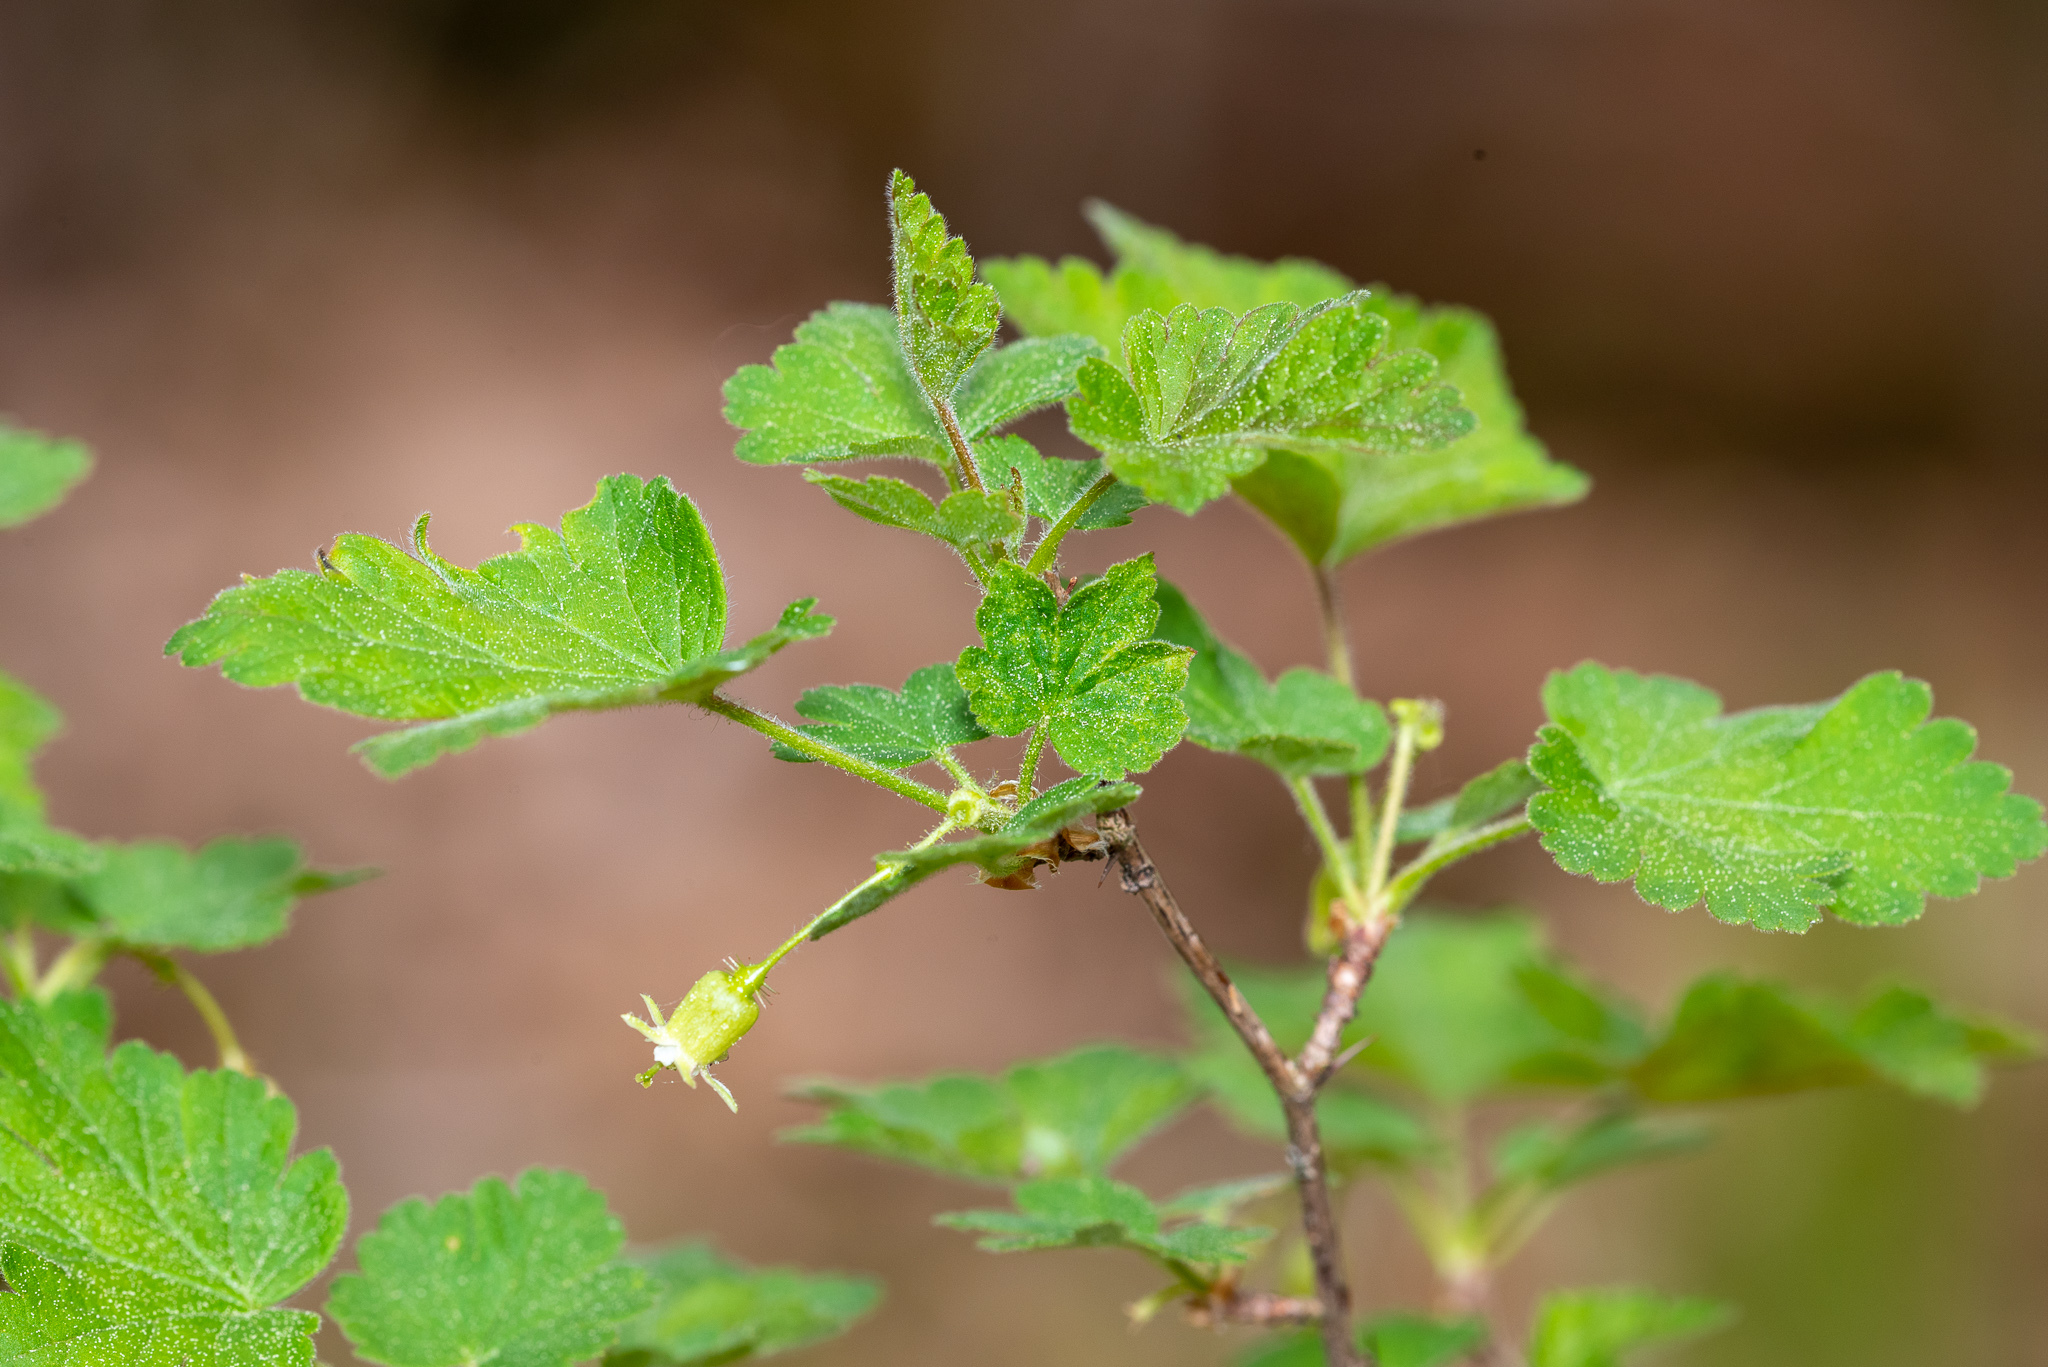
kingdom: Plantae
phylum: Tracheophyta
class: Magnoliopsida
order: Saxifragales
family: Grossulariaceae
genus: Ribes
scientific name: Ribes cynosbati
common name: American gooseberry
